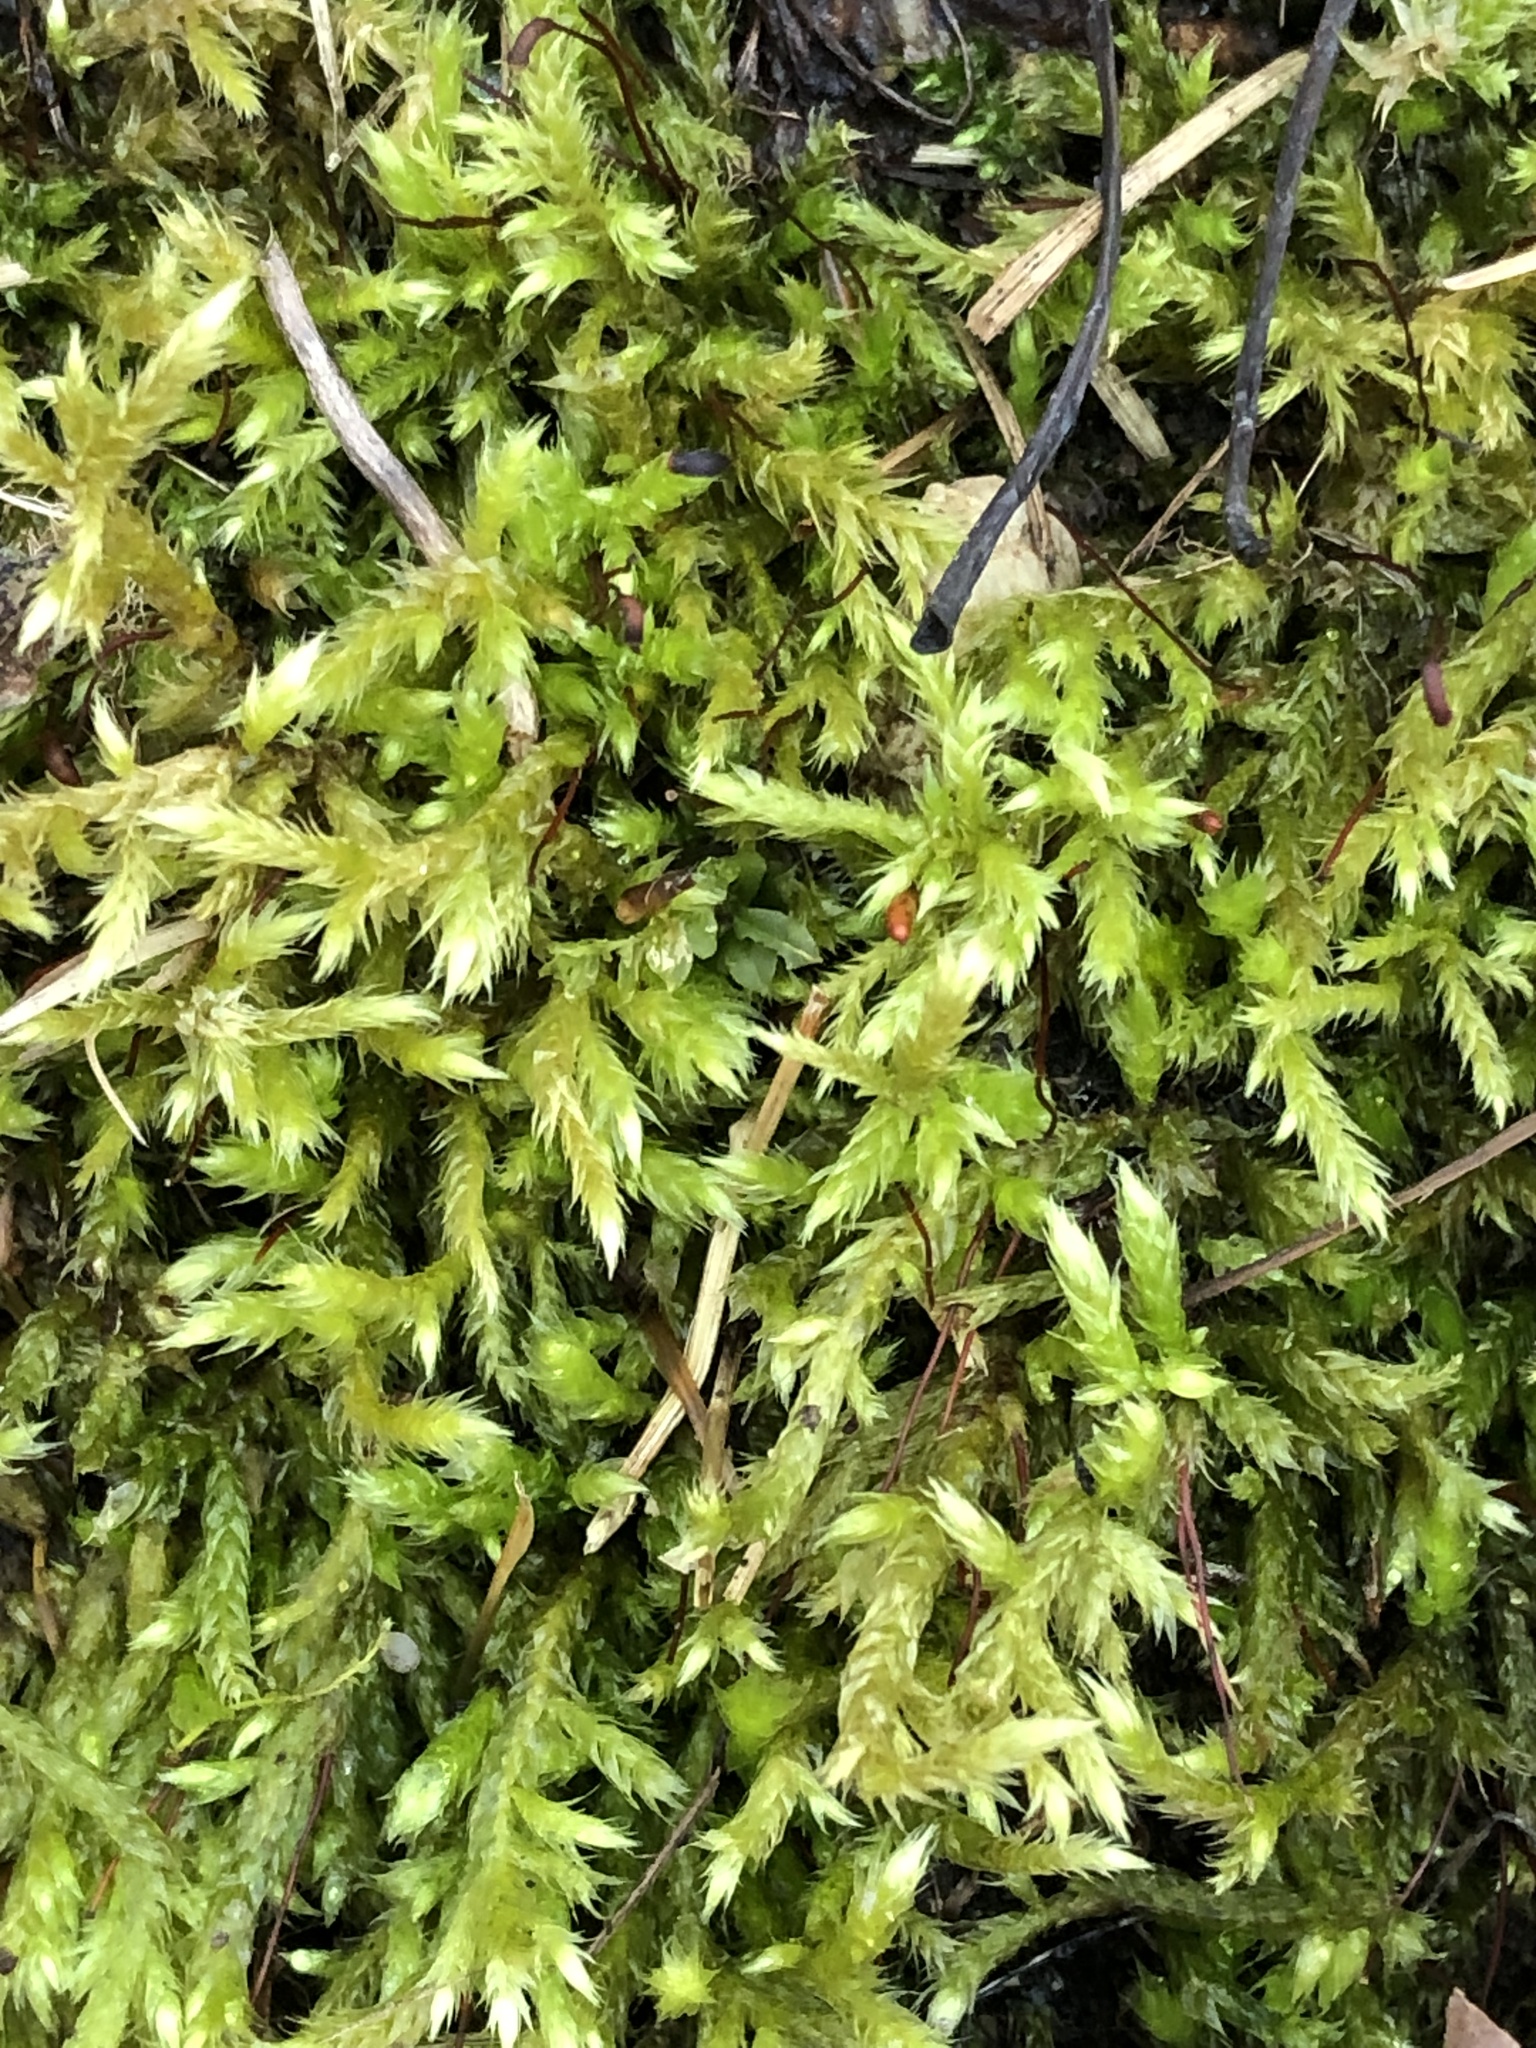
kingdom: Plantae
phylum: Bryophyta
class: Bryopsida
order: Hypnales
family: Callicladiaceae
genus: Callicladium
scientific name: Callicladium haldanianum
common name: Beautiful branch moss
